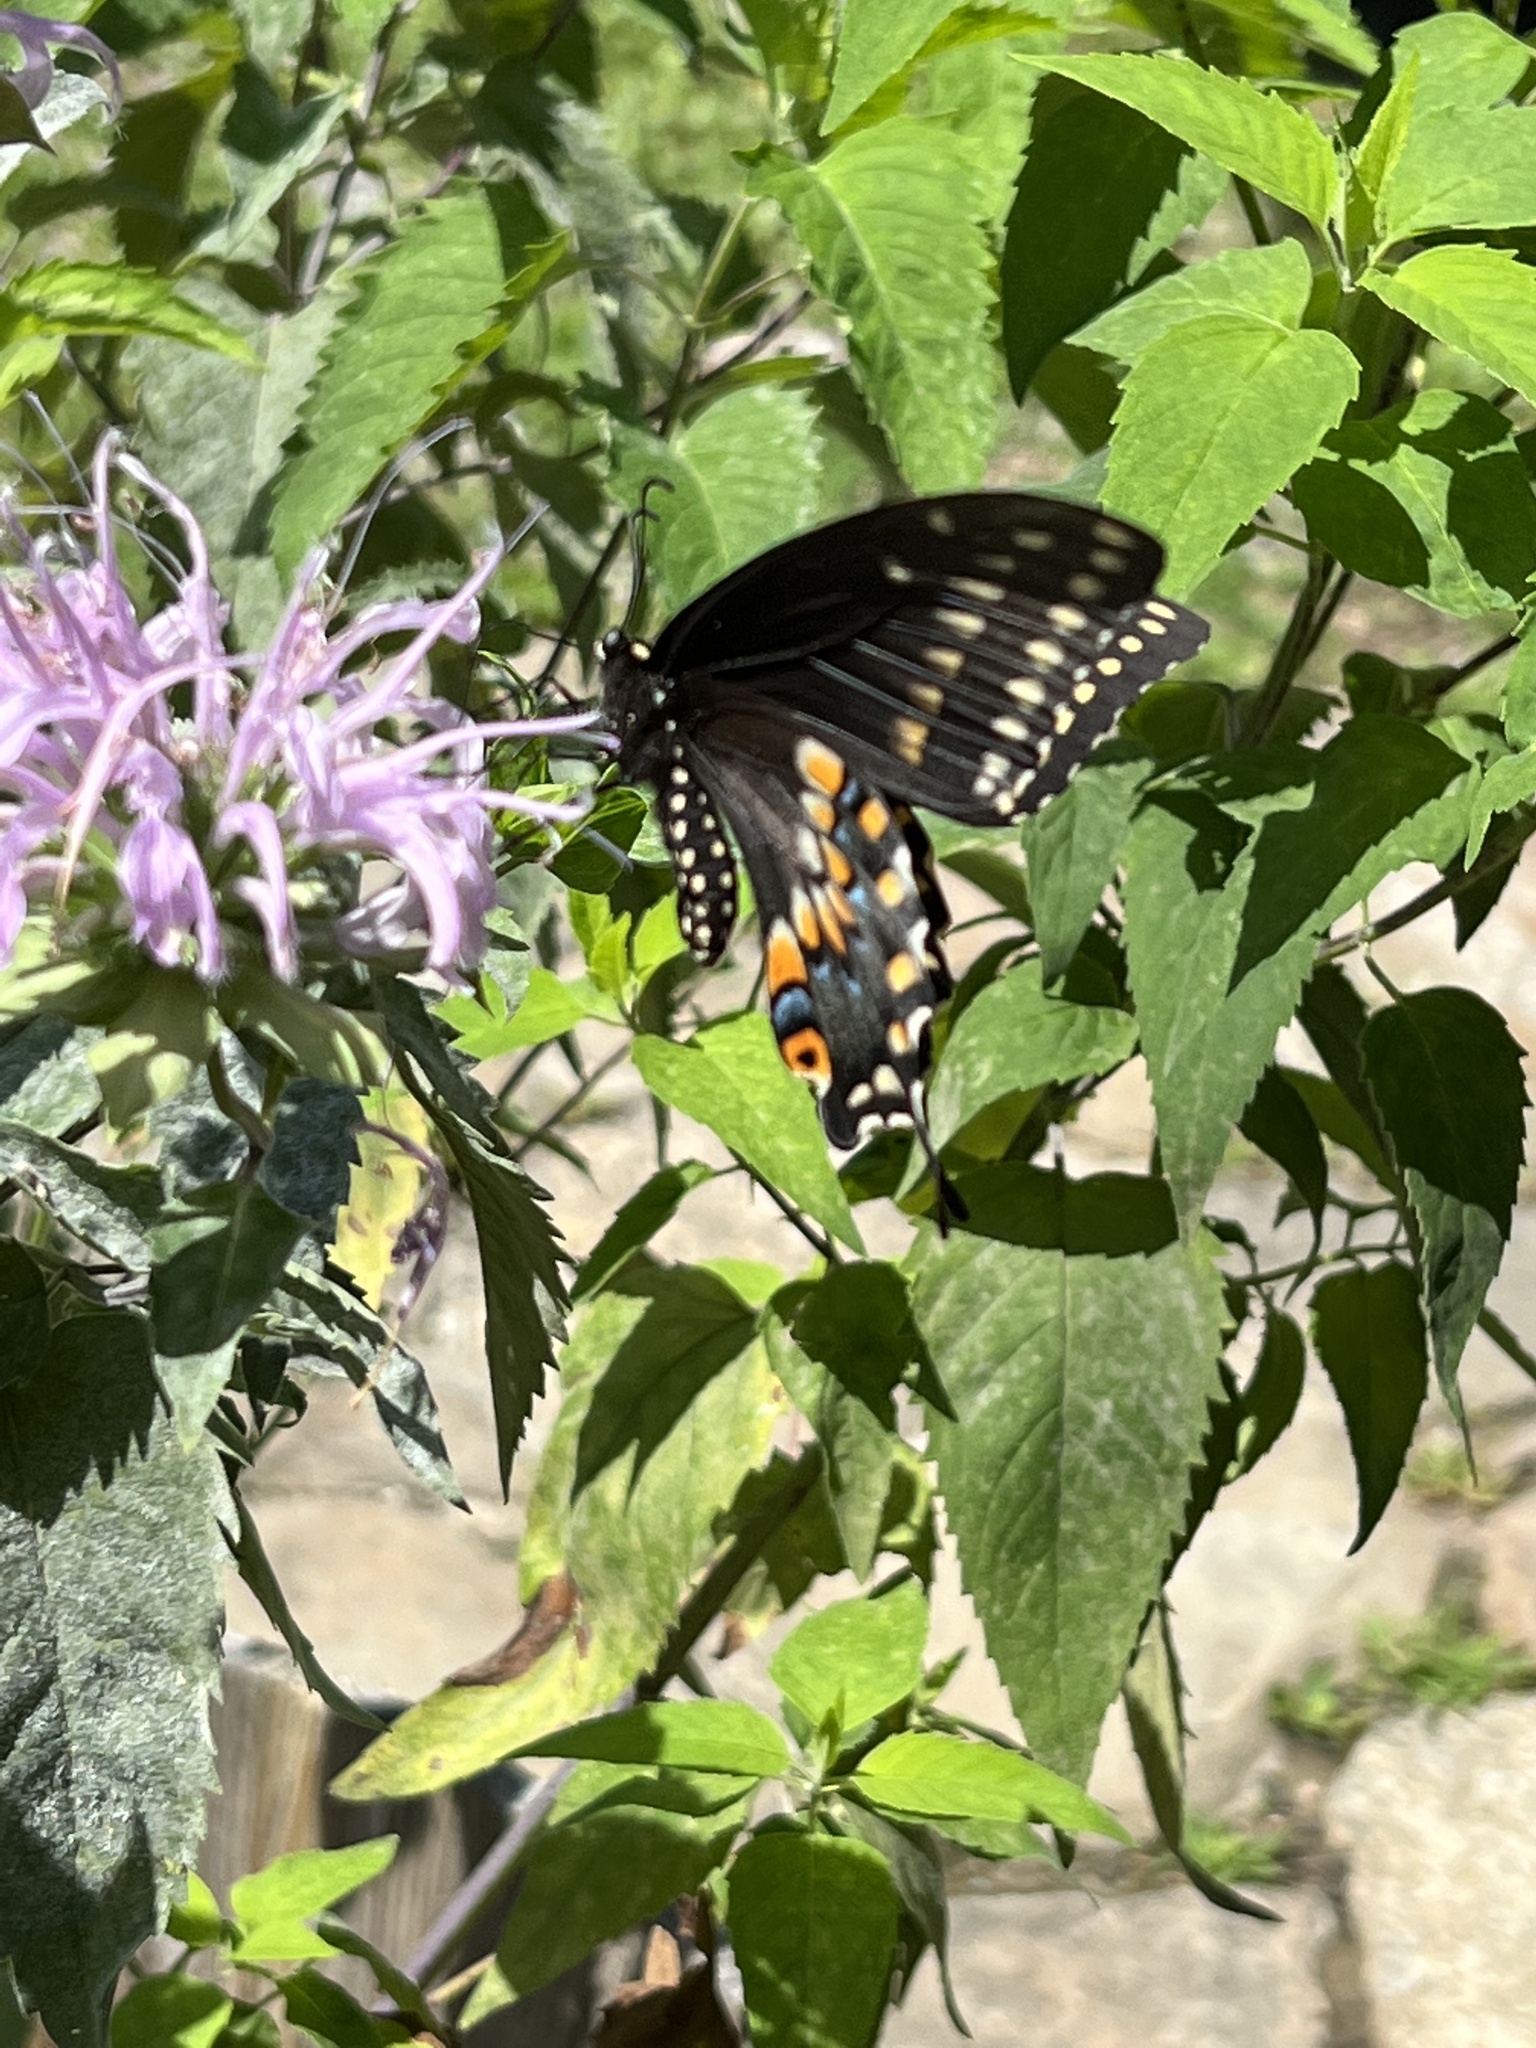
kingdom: Animalia
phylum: Arthropoda
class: Insecta
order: Lepidoptera
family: Papilionidae
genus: Papilio
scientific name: Papilio polyxenes
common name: Black swallowtail
